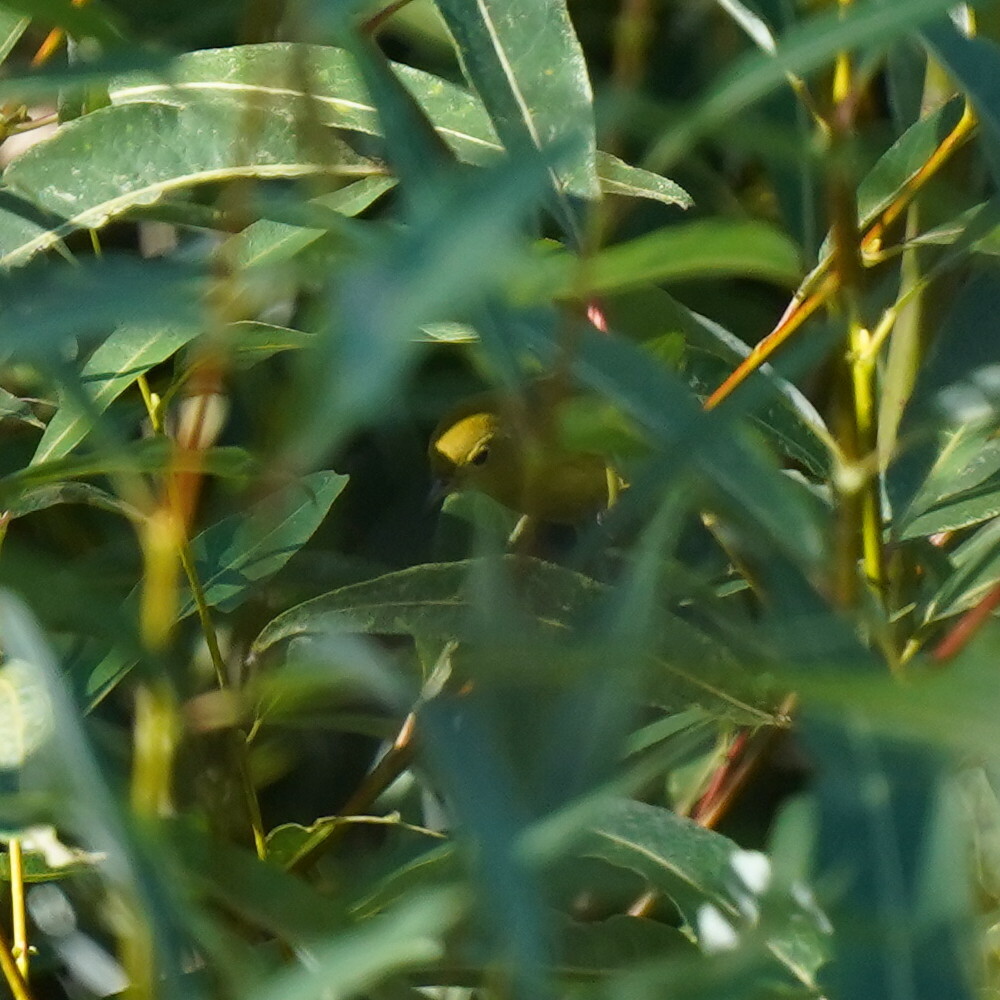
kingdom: Animalia
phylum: Chordata
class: Aves
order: Passeriformes
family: Parulidae
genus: Setophaga
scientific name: Setophaga petechia
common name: Yellow warbler
